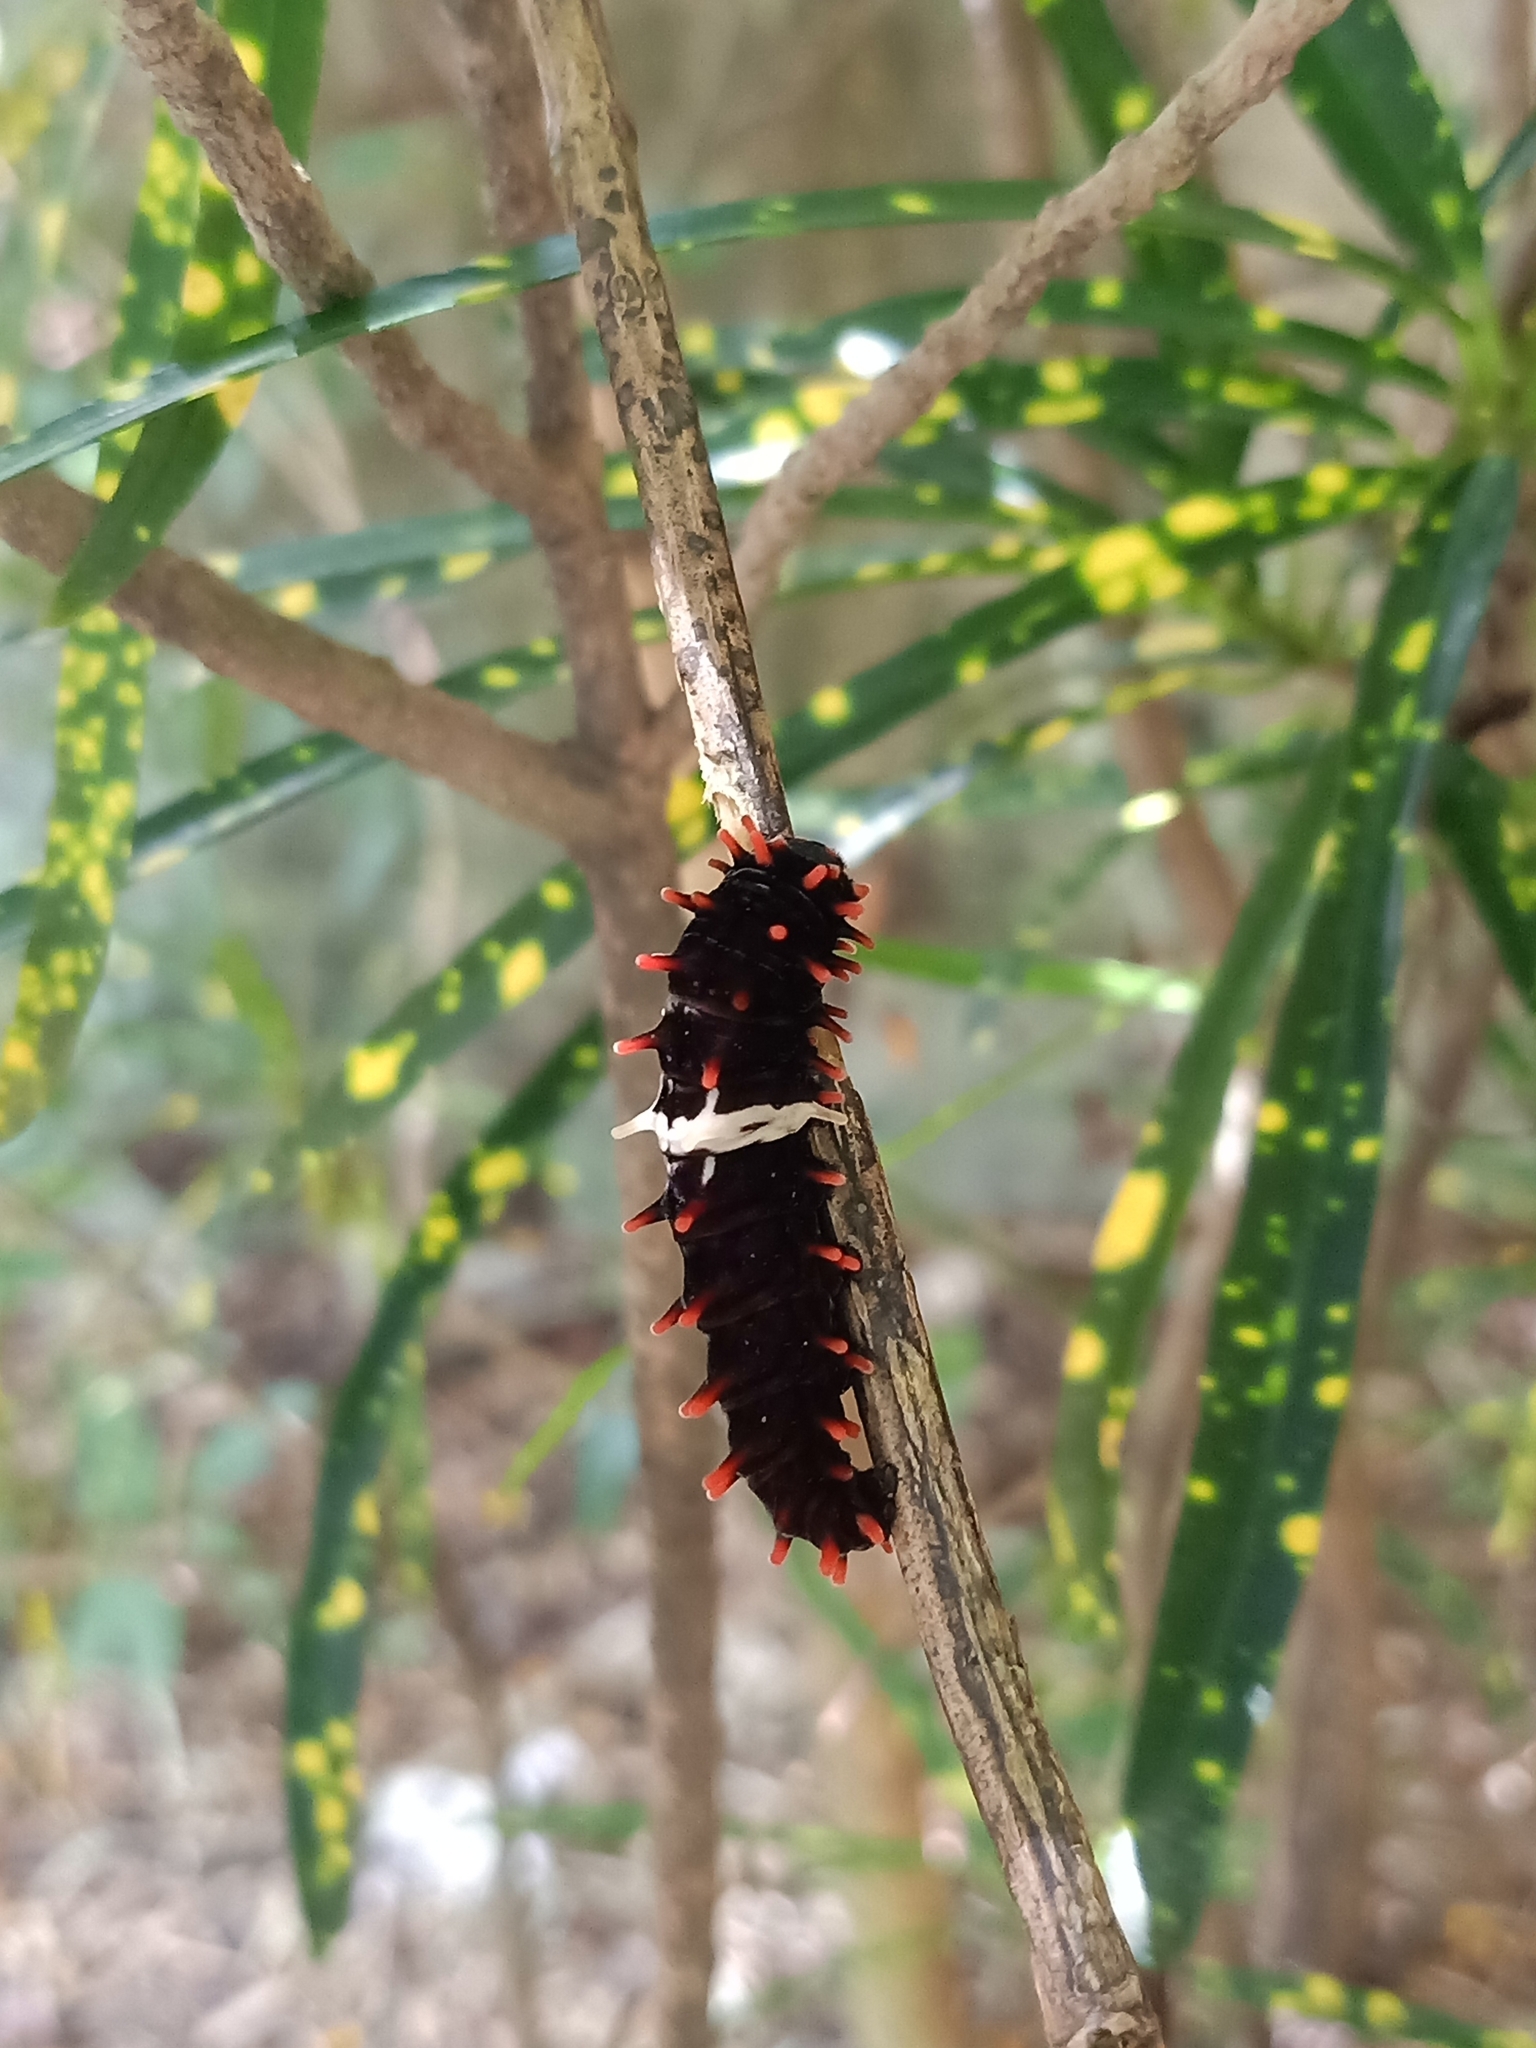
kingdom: Animalia
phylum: Arthropoda
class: Insecta
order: Lepidoptera
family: Papilionidae
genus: Pachliopta
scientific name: Pachliopta aristolochiae
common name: Common rose
